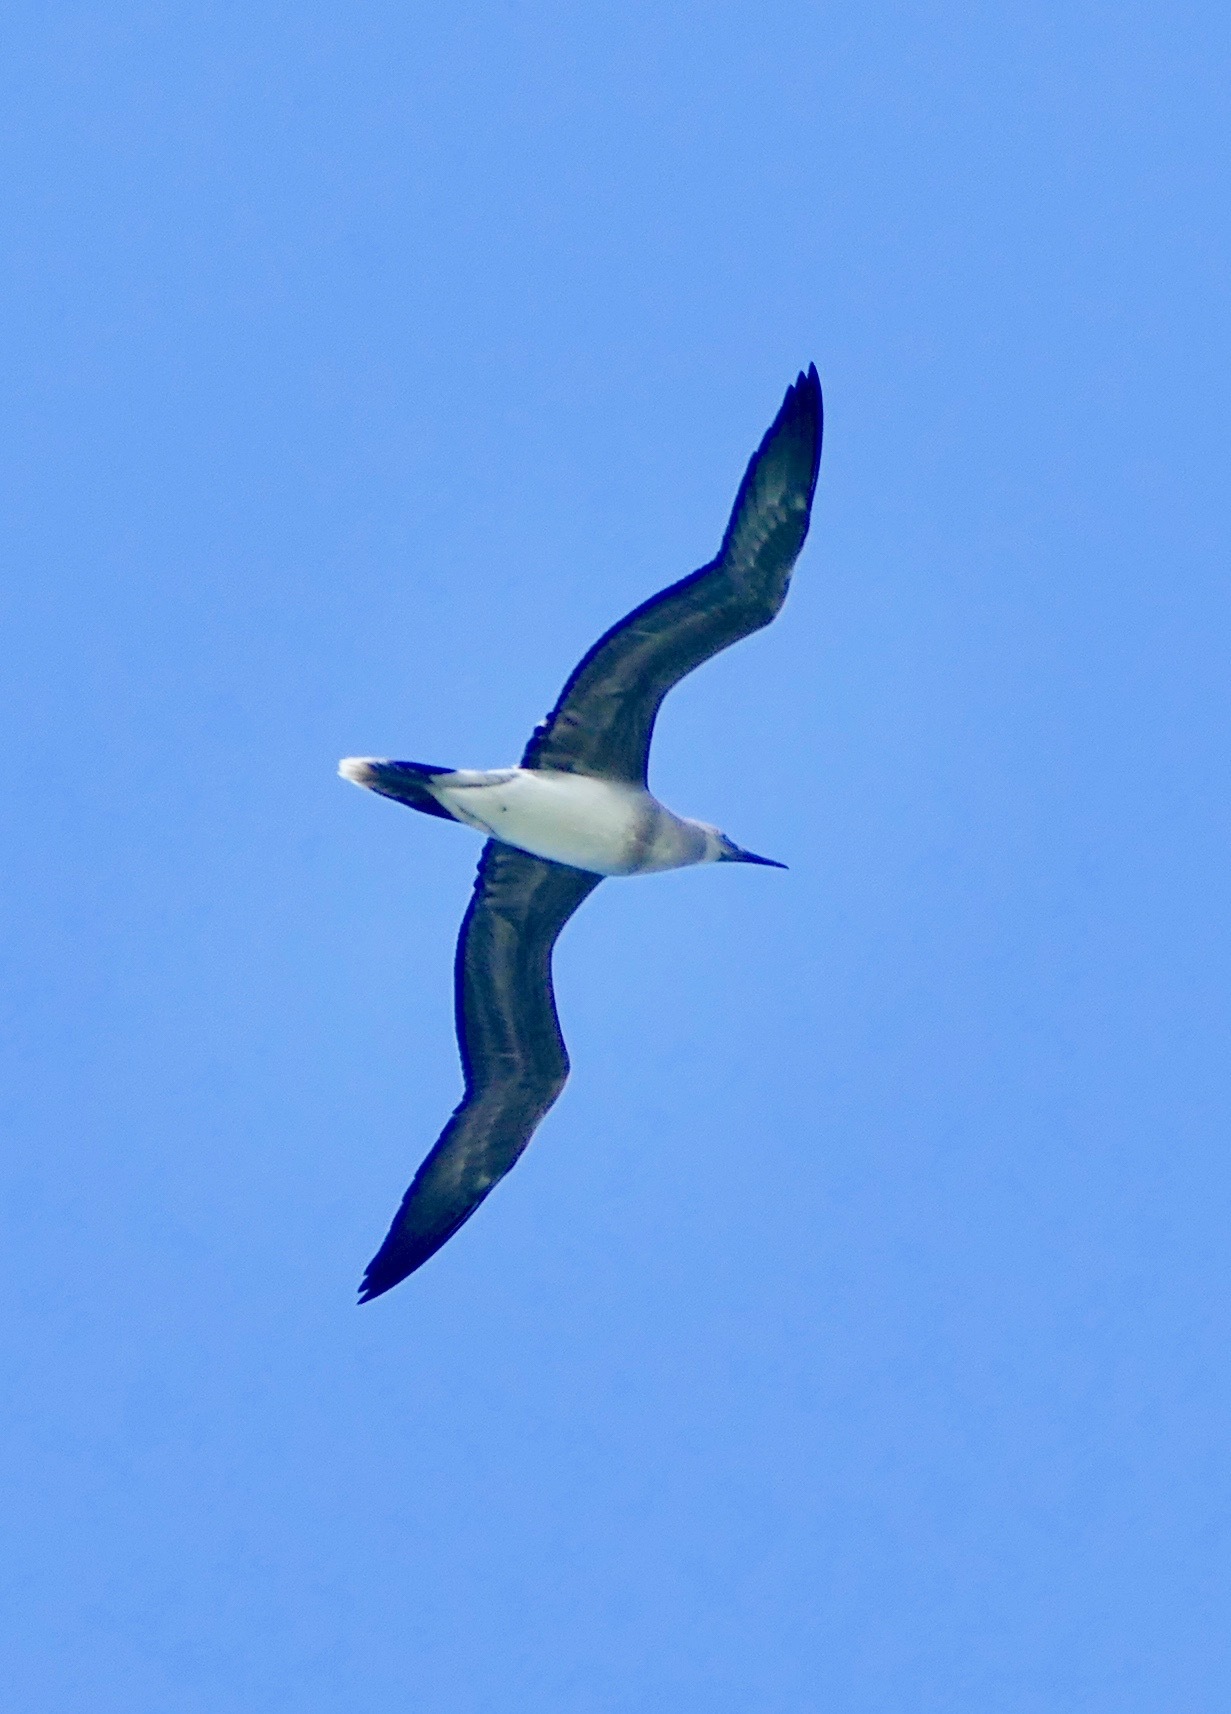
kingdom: Animalia
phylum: Chordata
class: Aves
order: Suliformes
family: Sulidae
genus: Sula
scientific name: Sula sula
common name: Red-footed booby
